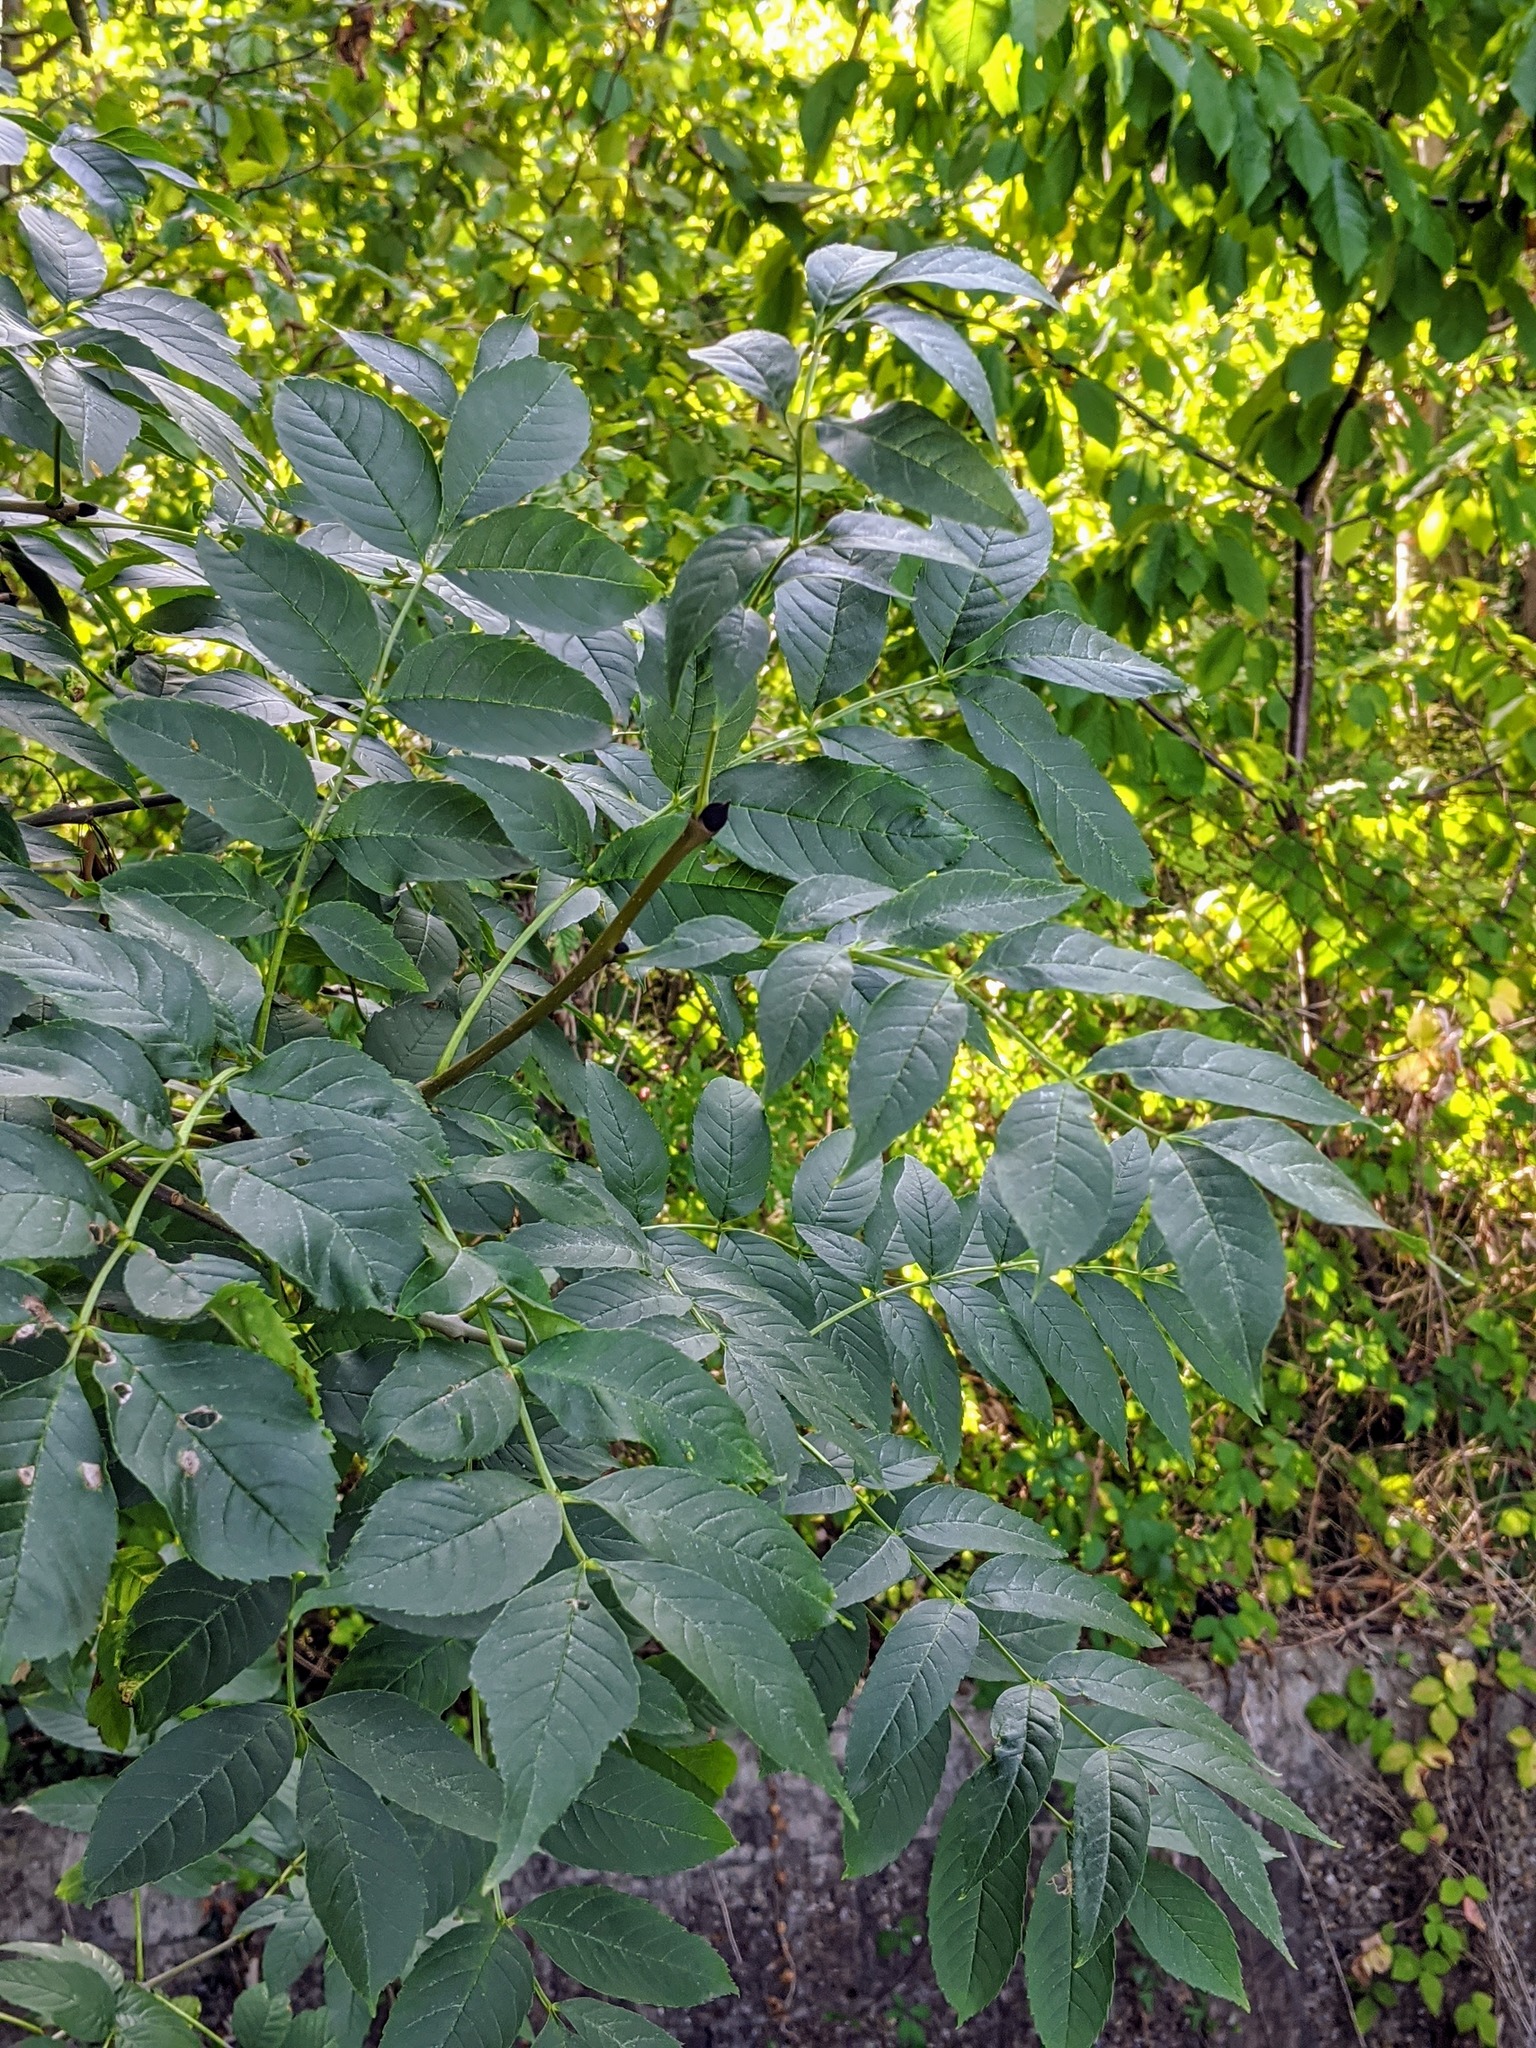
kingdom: Plantae
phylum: Tracheophyta
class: Magnoliopsida
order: Lamiales
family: Oleaceae
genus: Fraxinus
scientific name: Fraxinus excelsior
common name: European ash
